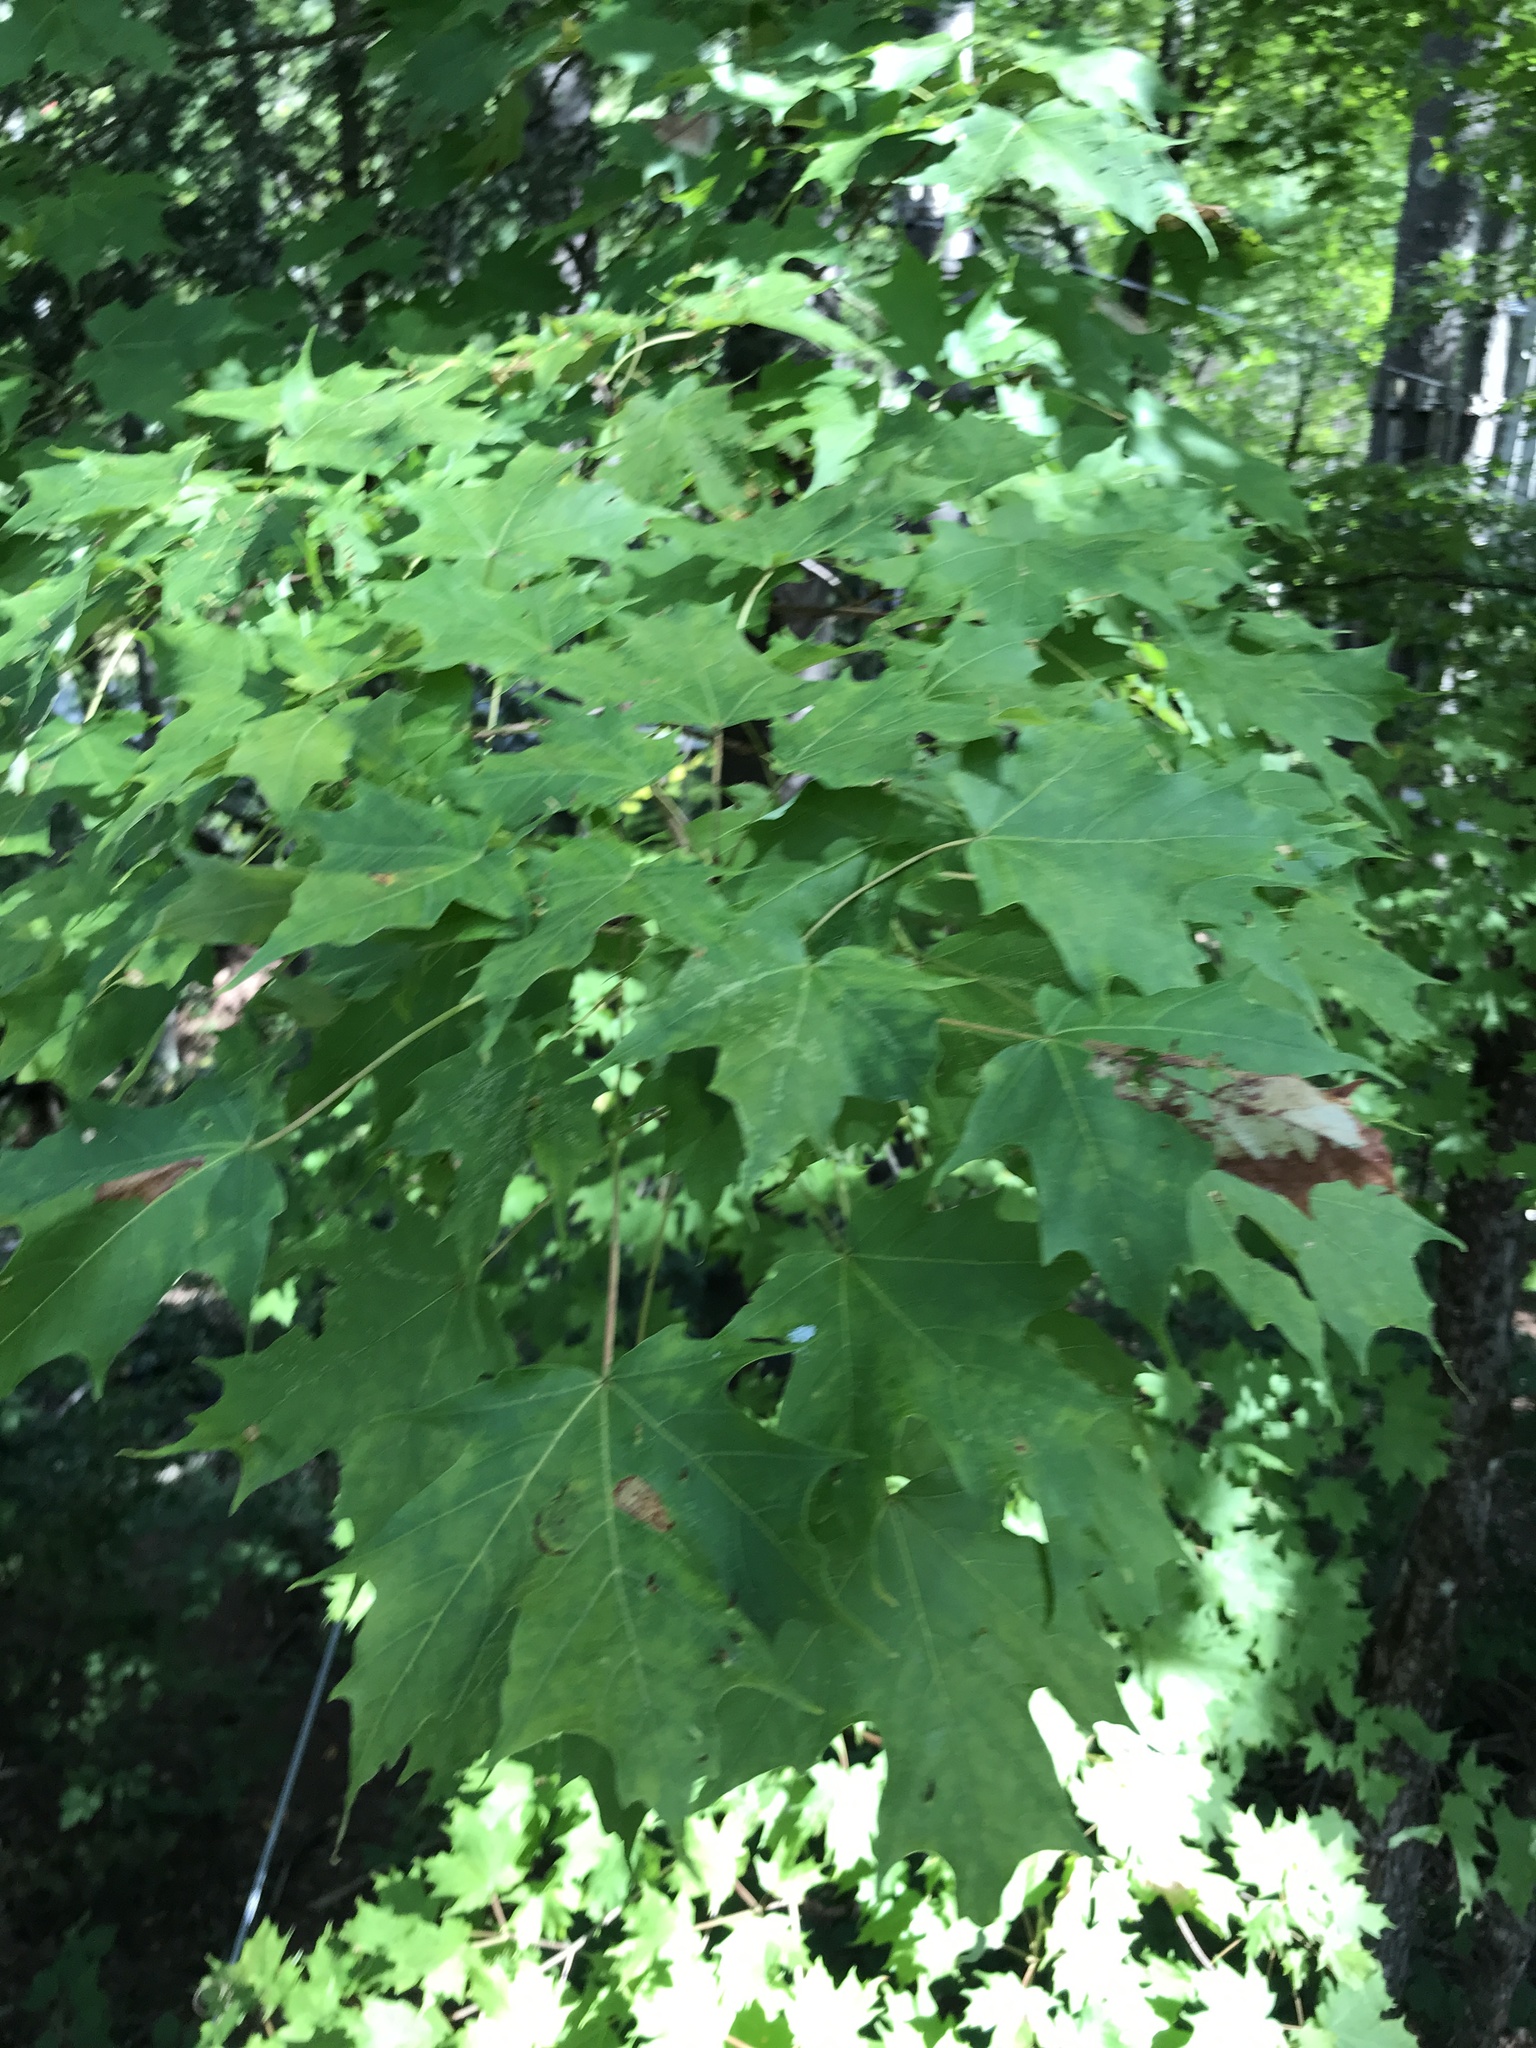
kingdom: Plantae
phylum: Tracheophyta
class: Magnoliopsida
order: Sapindales
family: Sapindaceae
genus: Acer
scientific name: Acer saccharum
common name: Sugar maple
